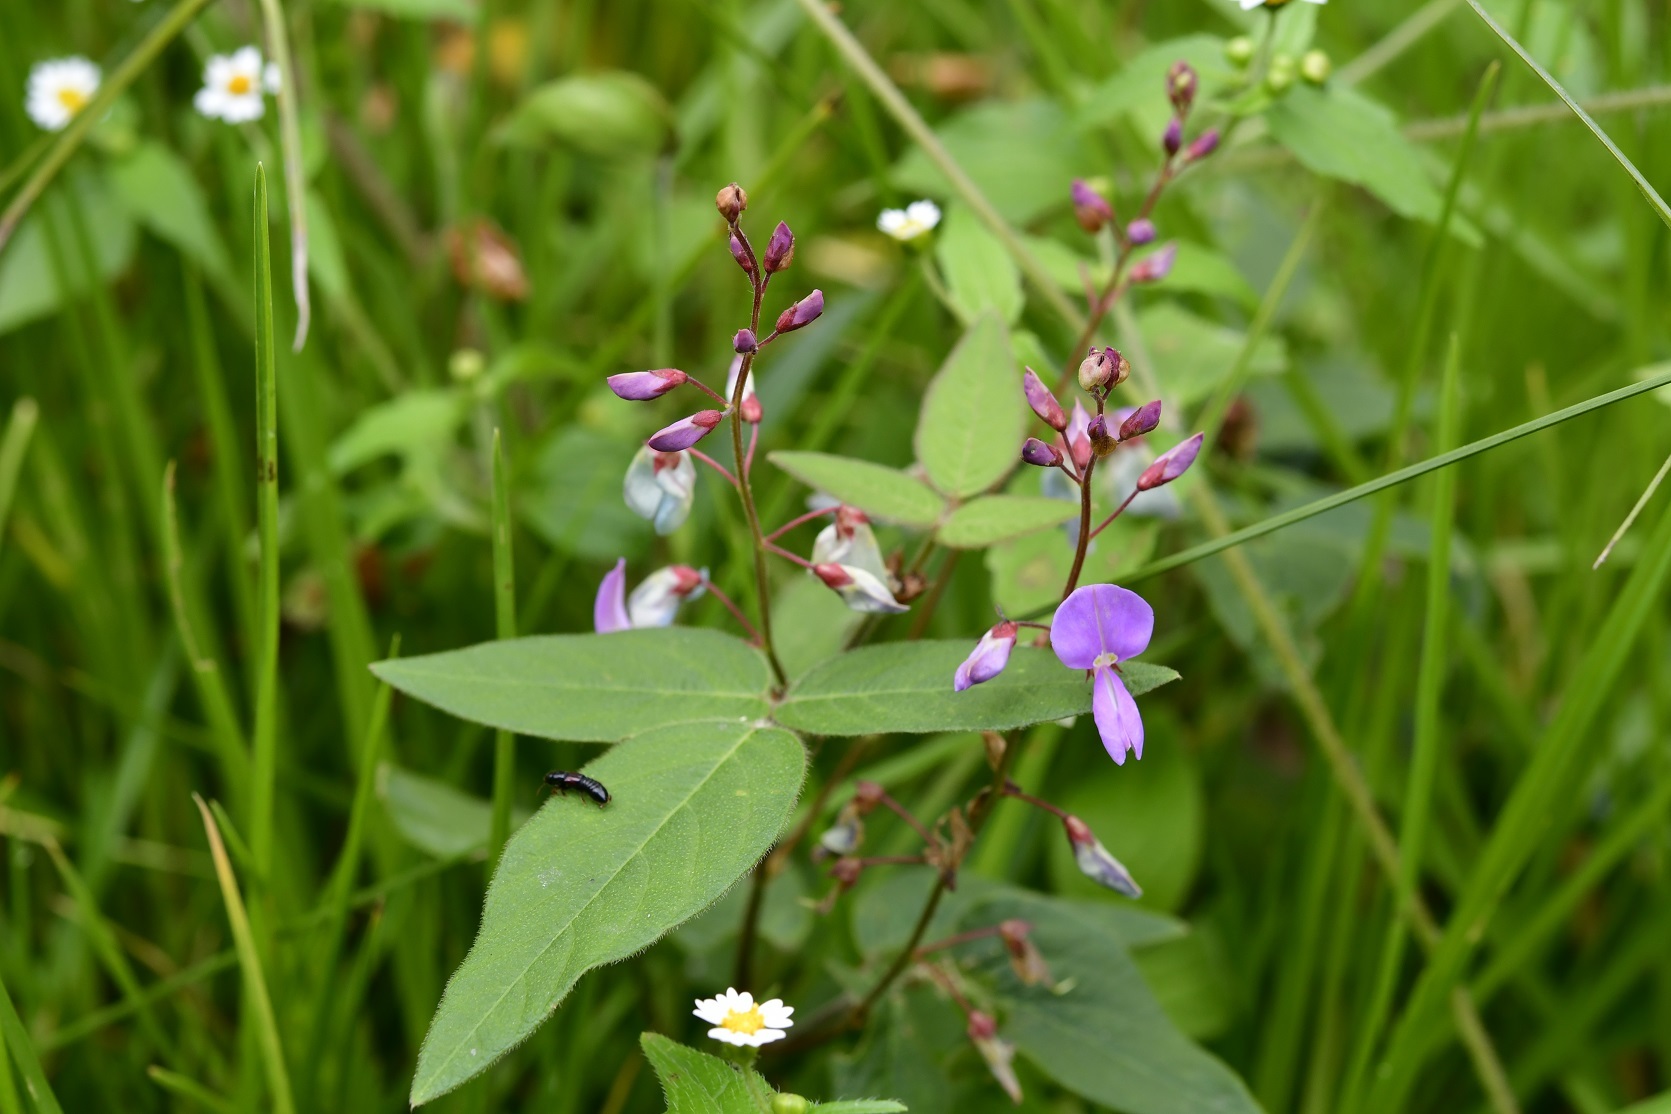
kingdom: Plantae
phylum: Tracheophyta
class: Magnoliopsida
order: Fabales
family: Fabaceae
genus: Desmodium
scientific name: Desmodium pringlei
